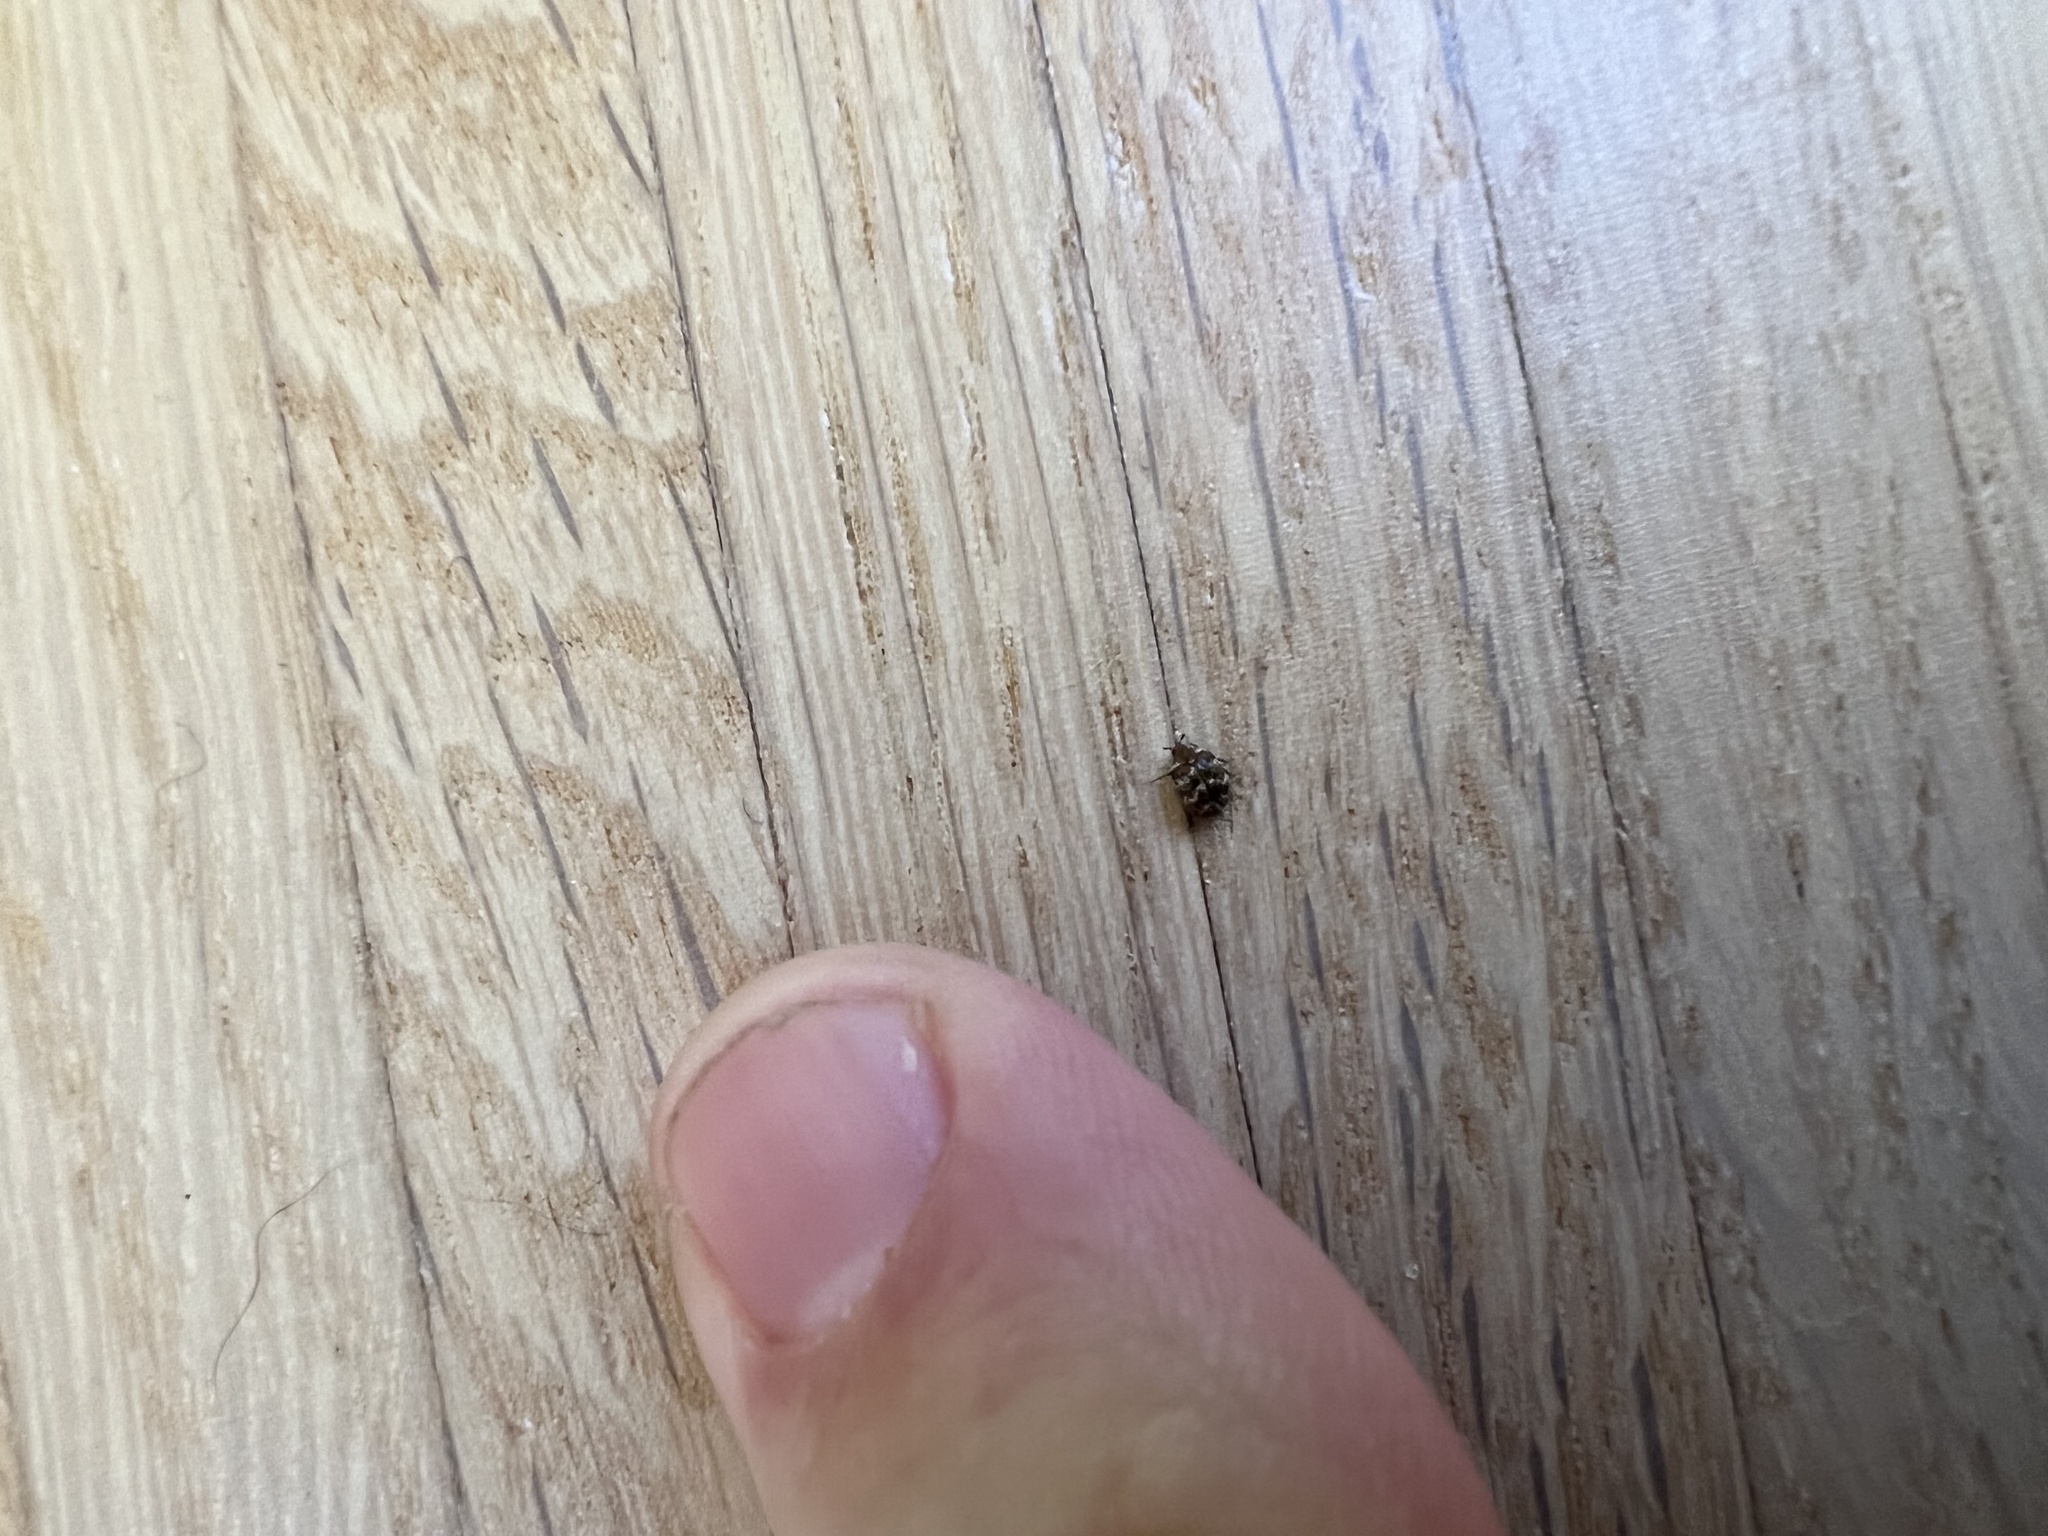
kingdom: Animalia
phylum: Arthropoda
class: Insecta
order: Coleoptera
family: Dermestidae
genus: Anthrenus
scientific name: Anthrenus verbasci
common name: Varied carpet beetle
